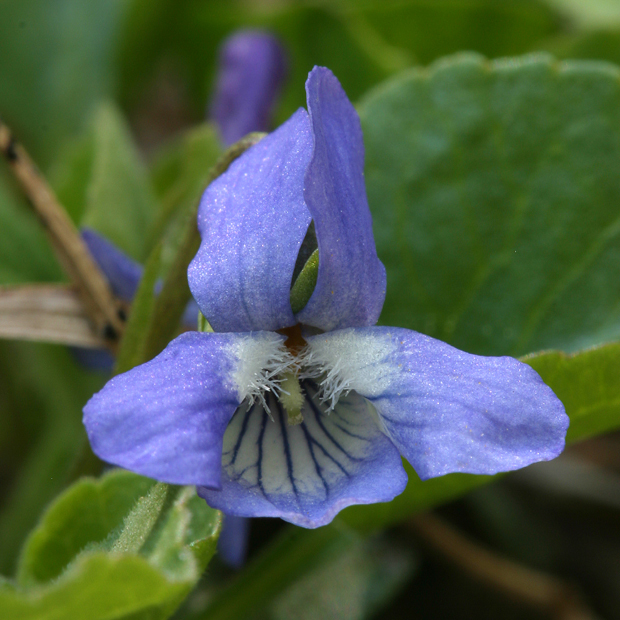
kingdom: Plantae
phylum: Tracheophyta
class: Magnoliopsida
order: Malpighiales
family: Violaceae
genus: Viola
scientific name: Viola adunca
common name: Sand violet
